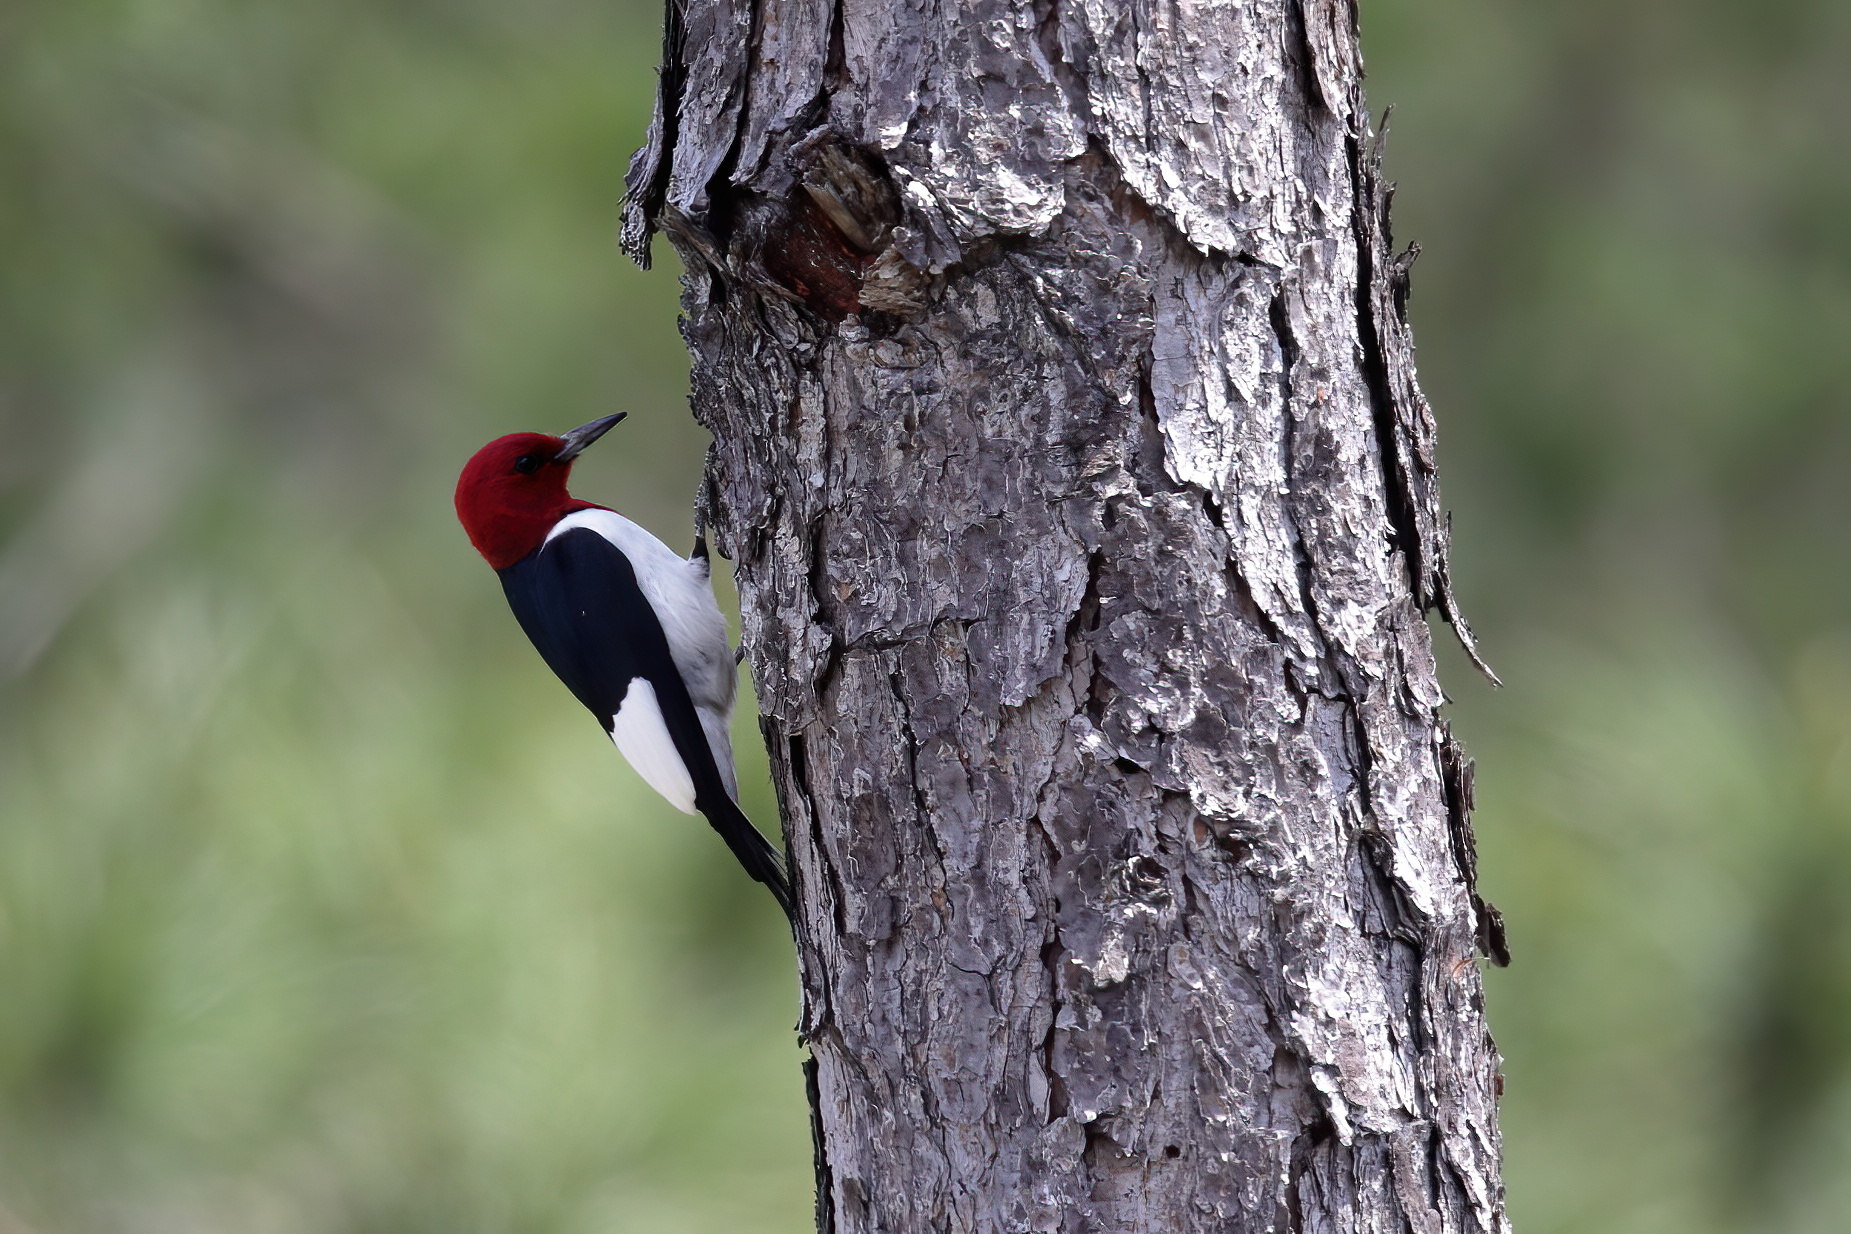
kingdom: Animalia
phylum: Chordata
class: Aves
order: Piciformes
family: Picidae
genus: Melanerpes
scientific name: Melanerpes erythrocephalus
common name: Red-headed woodpecker
